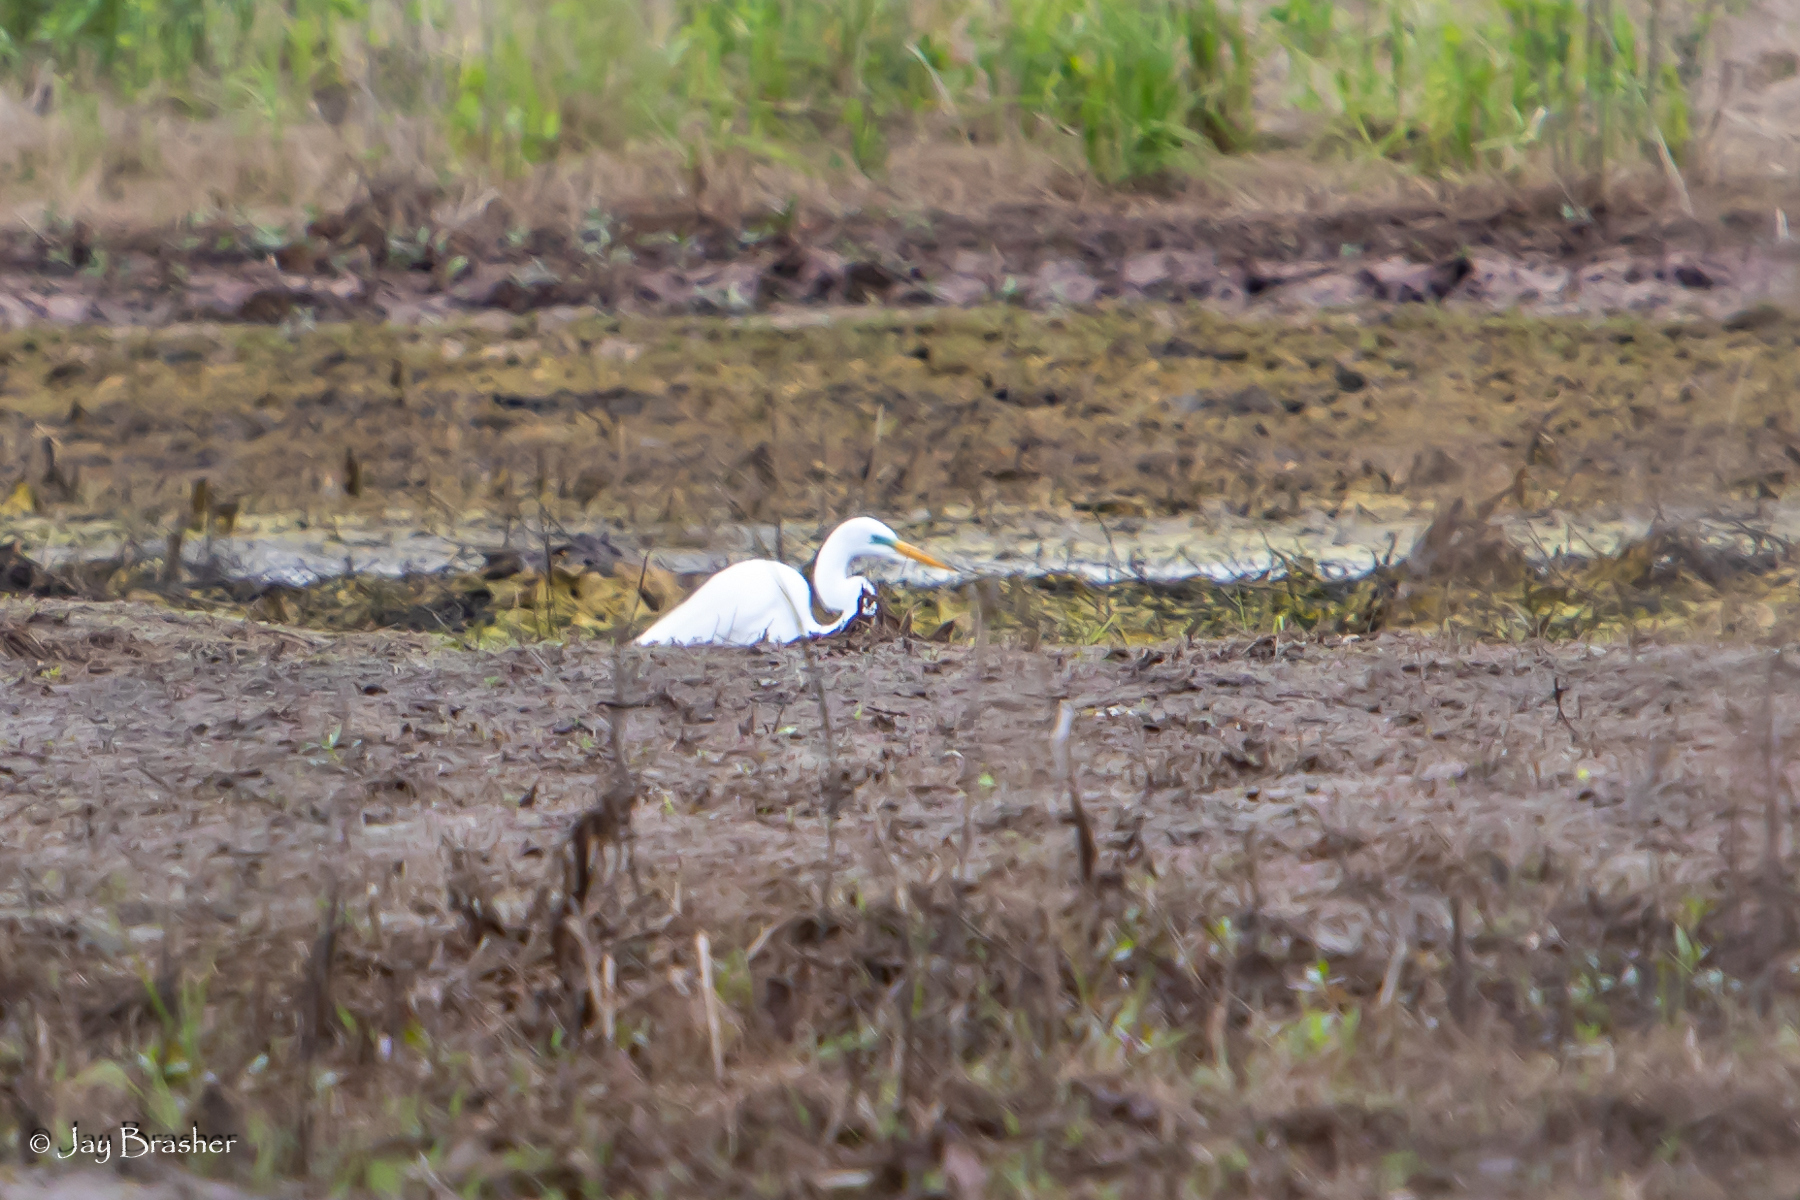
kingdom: Animalia
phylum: Chordata
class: Aves
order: Pelecaniformes
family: Ardeidae
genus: Ardea
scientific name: Ardea alba
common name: Great egret
